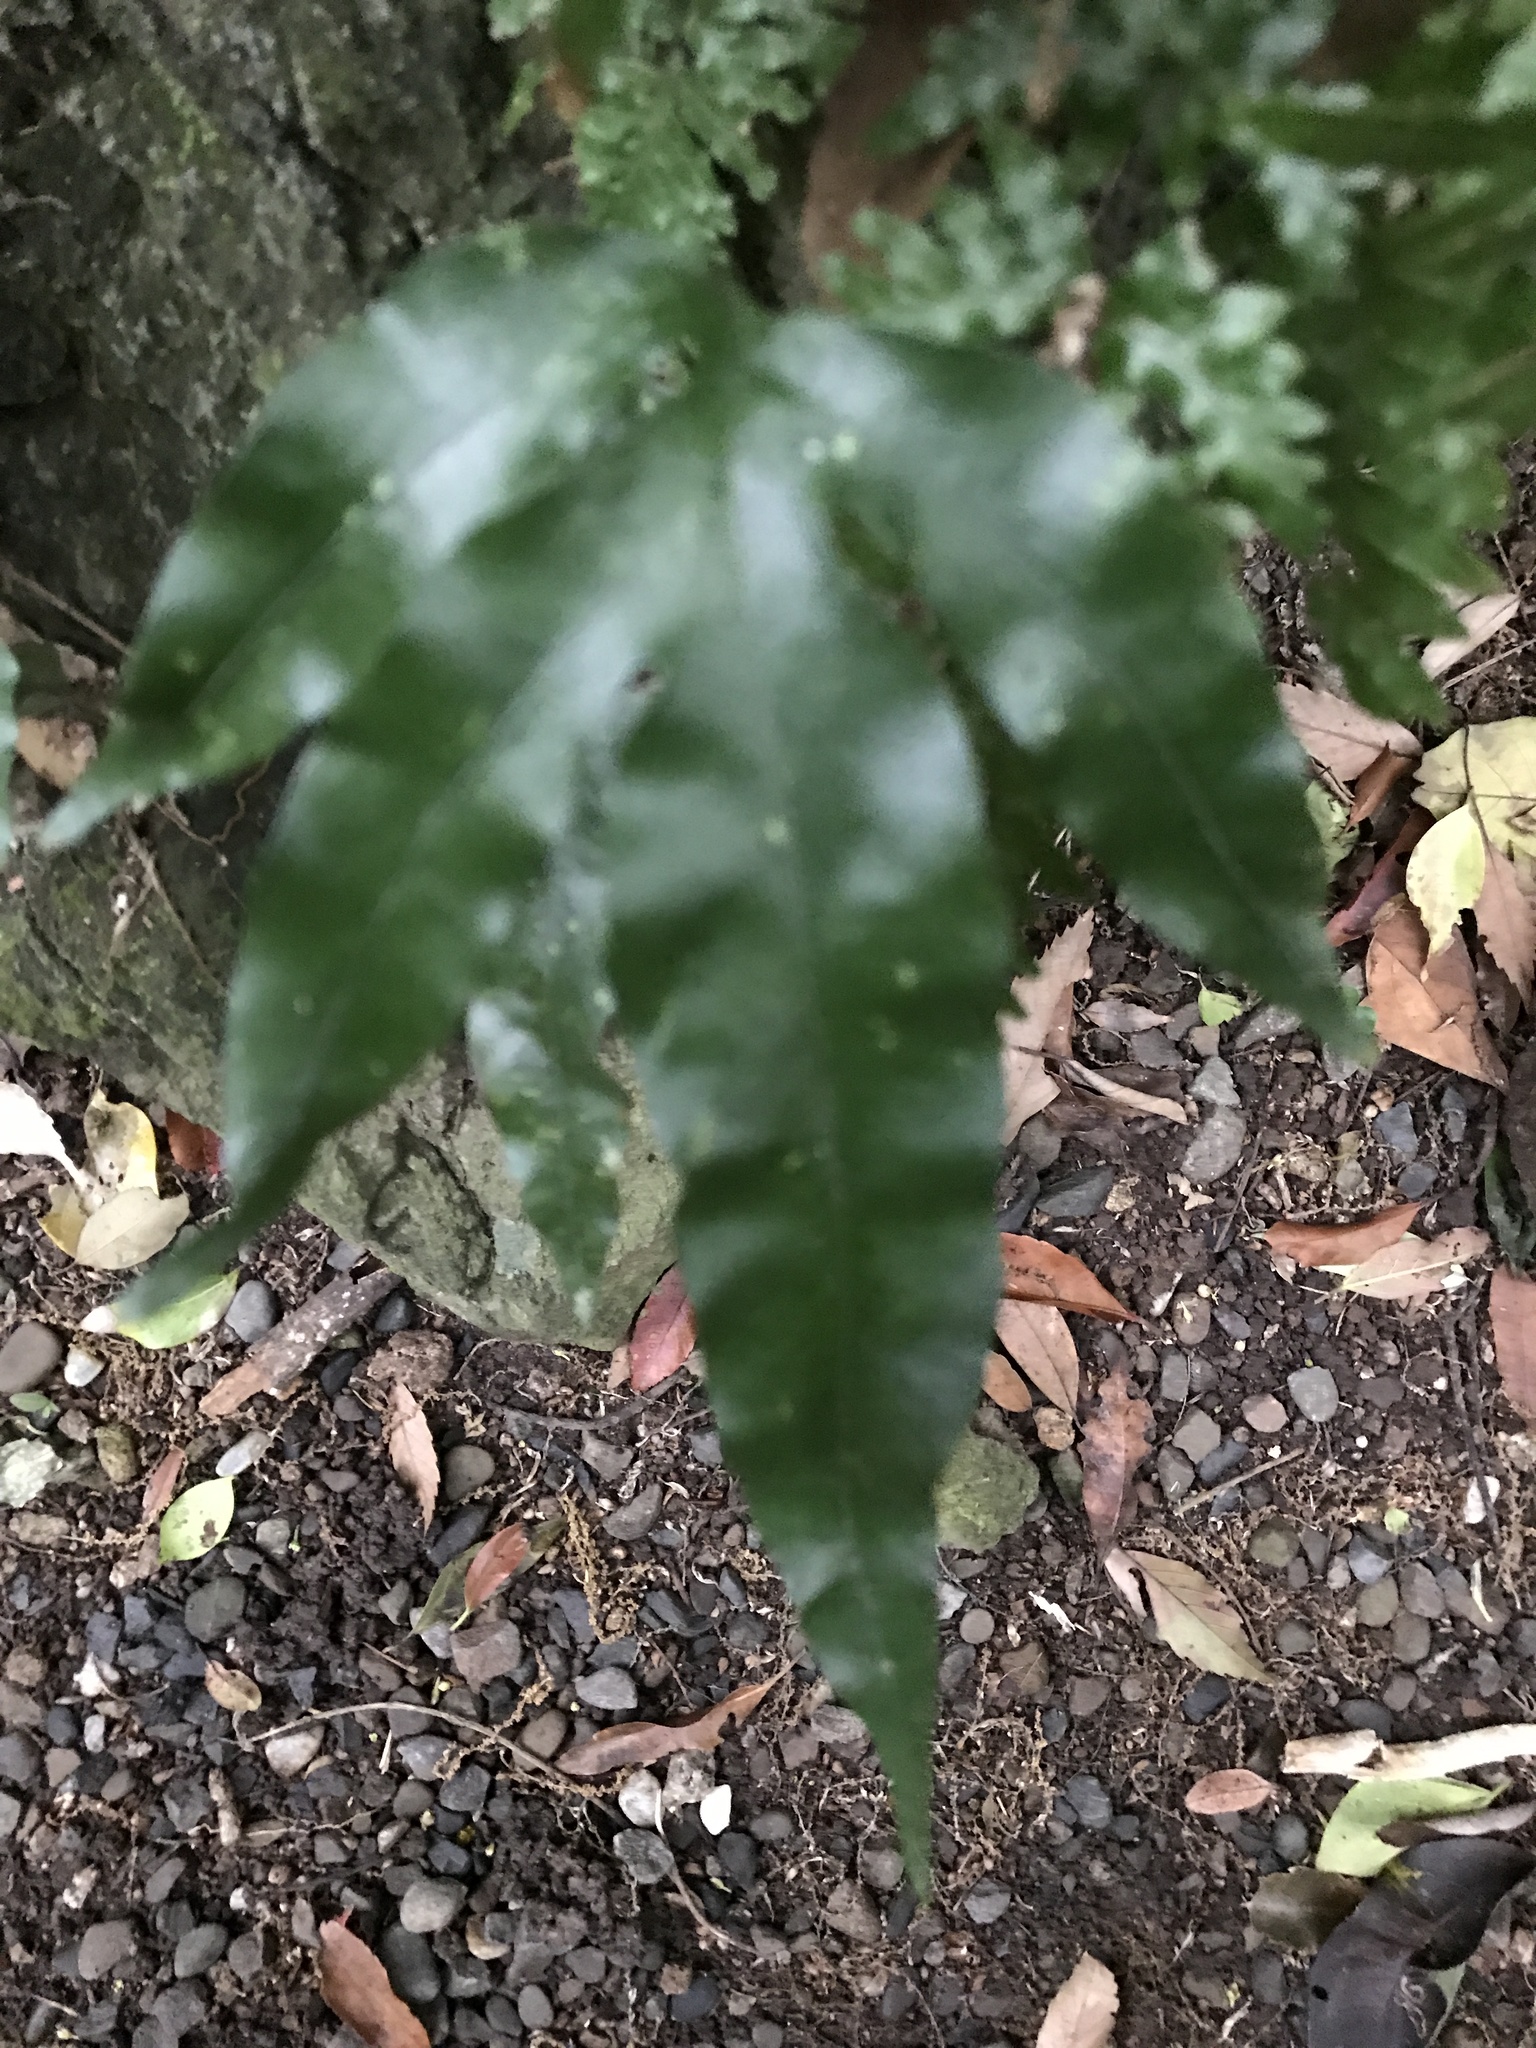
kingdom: Plantae
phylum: Tracheophyta
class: Polypodiopsida
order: Polypodiales
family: Polypodiaceae
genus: Leptochilus
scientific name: Leptochilus ellipticus
